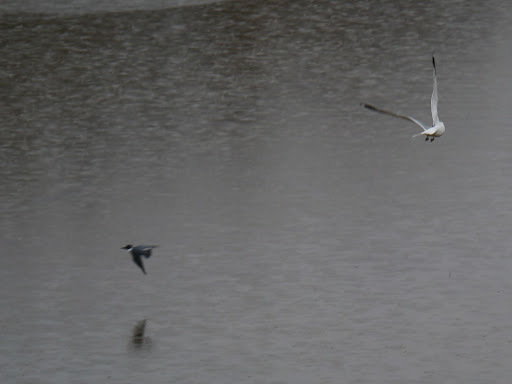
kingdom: Animalia
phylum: Chordata
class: Aves
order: Coraciiformes
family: Alcedinidae
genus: Megaceryle
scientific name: Megaceryle alcyon
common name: Belted kingfisher
